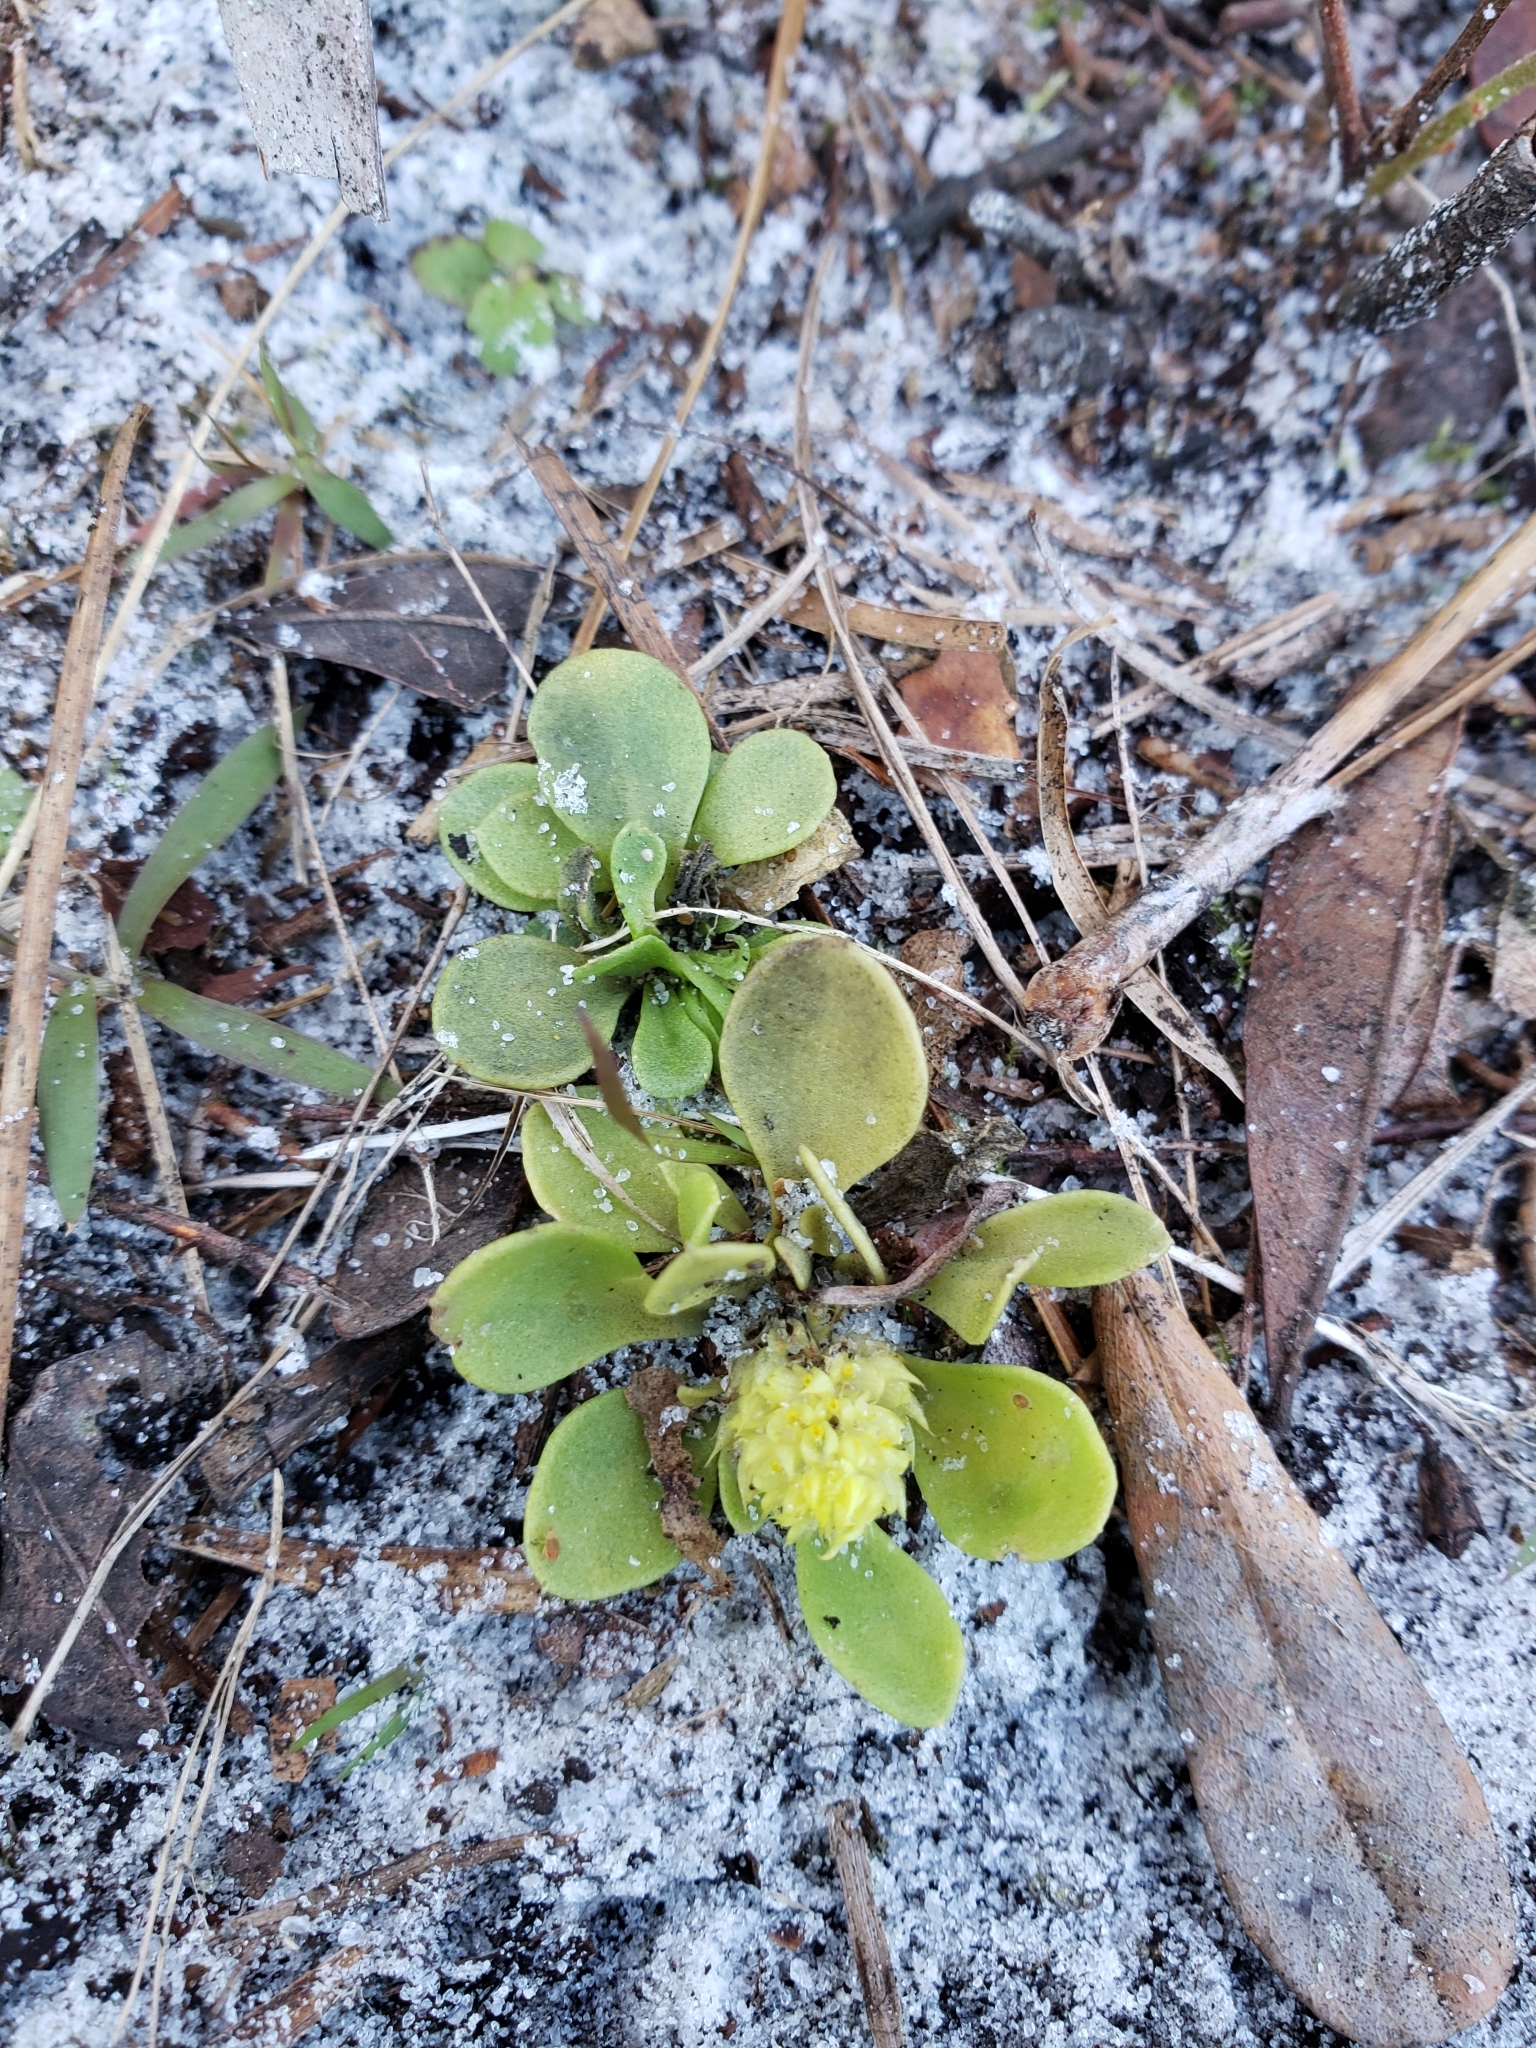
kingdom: Plantae
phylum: Tracheophyta
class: Magnoliopsida
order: Fabales
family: Polygalaceae
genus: Polygala
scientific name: Polygala nana
